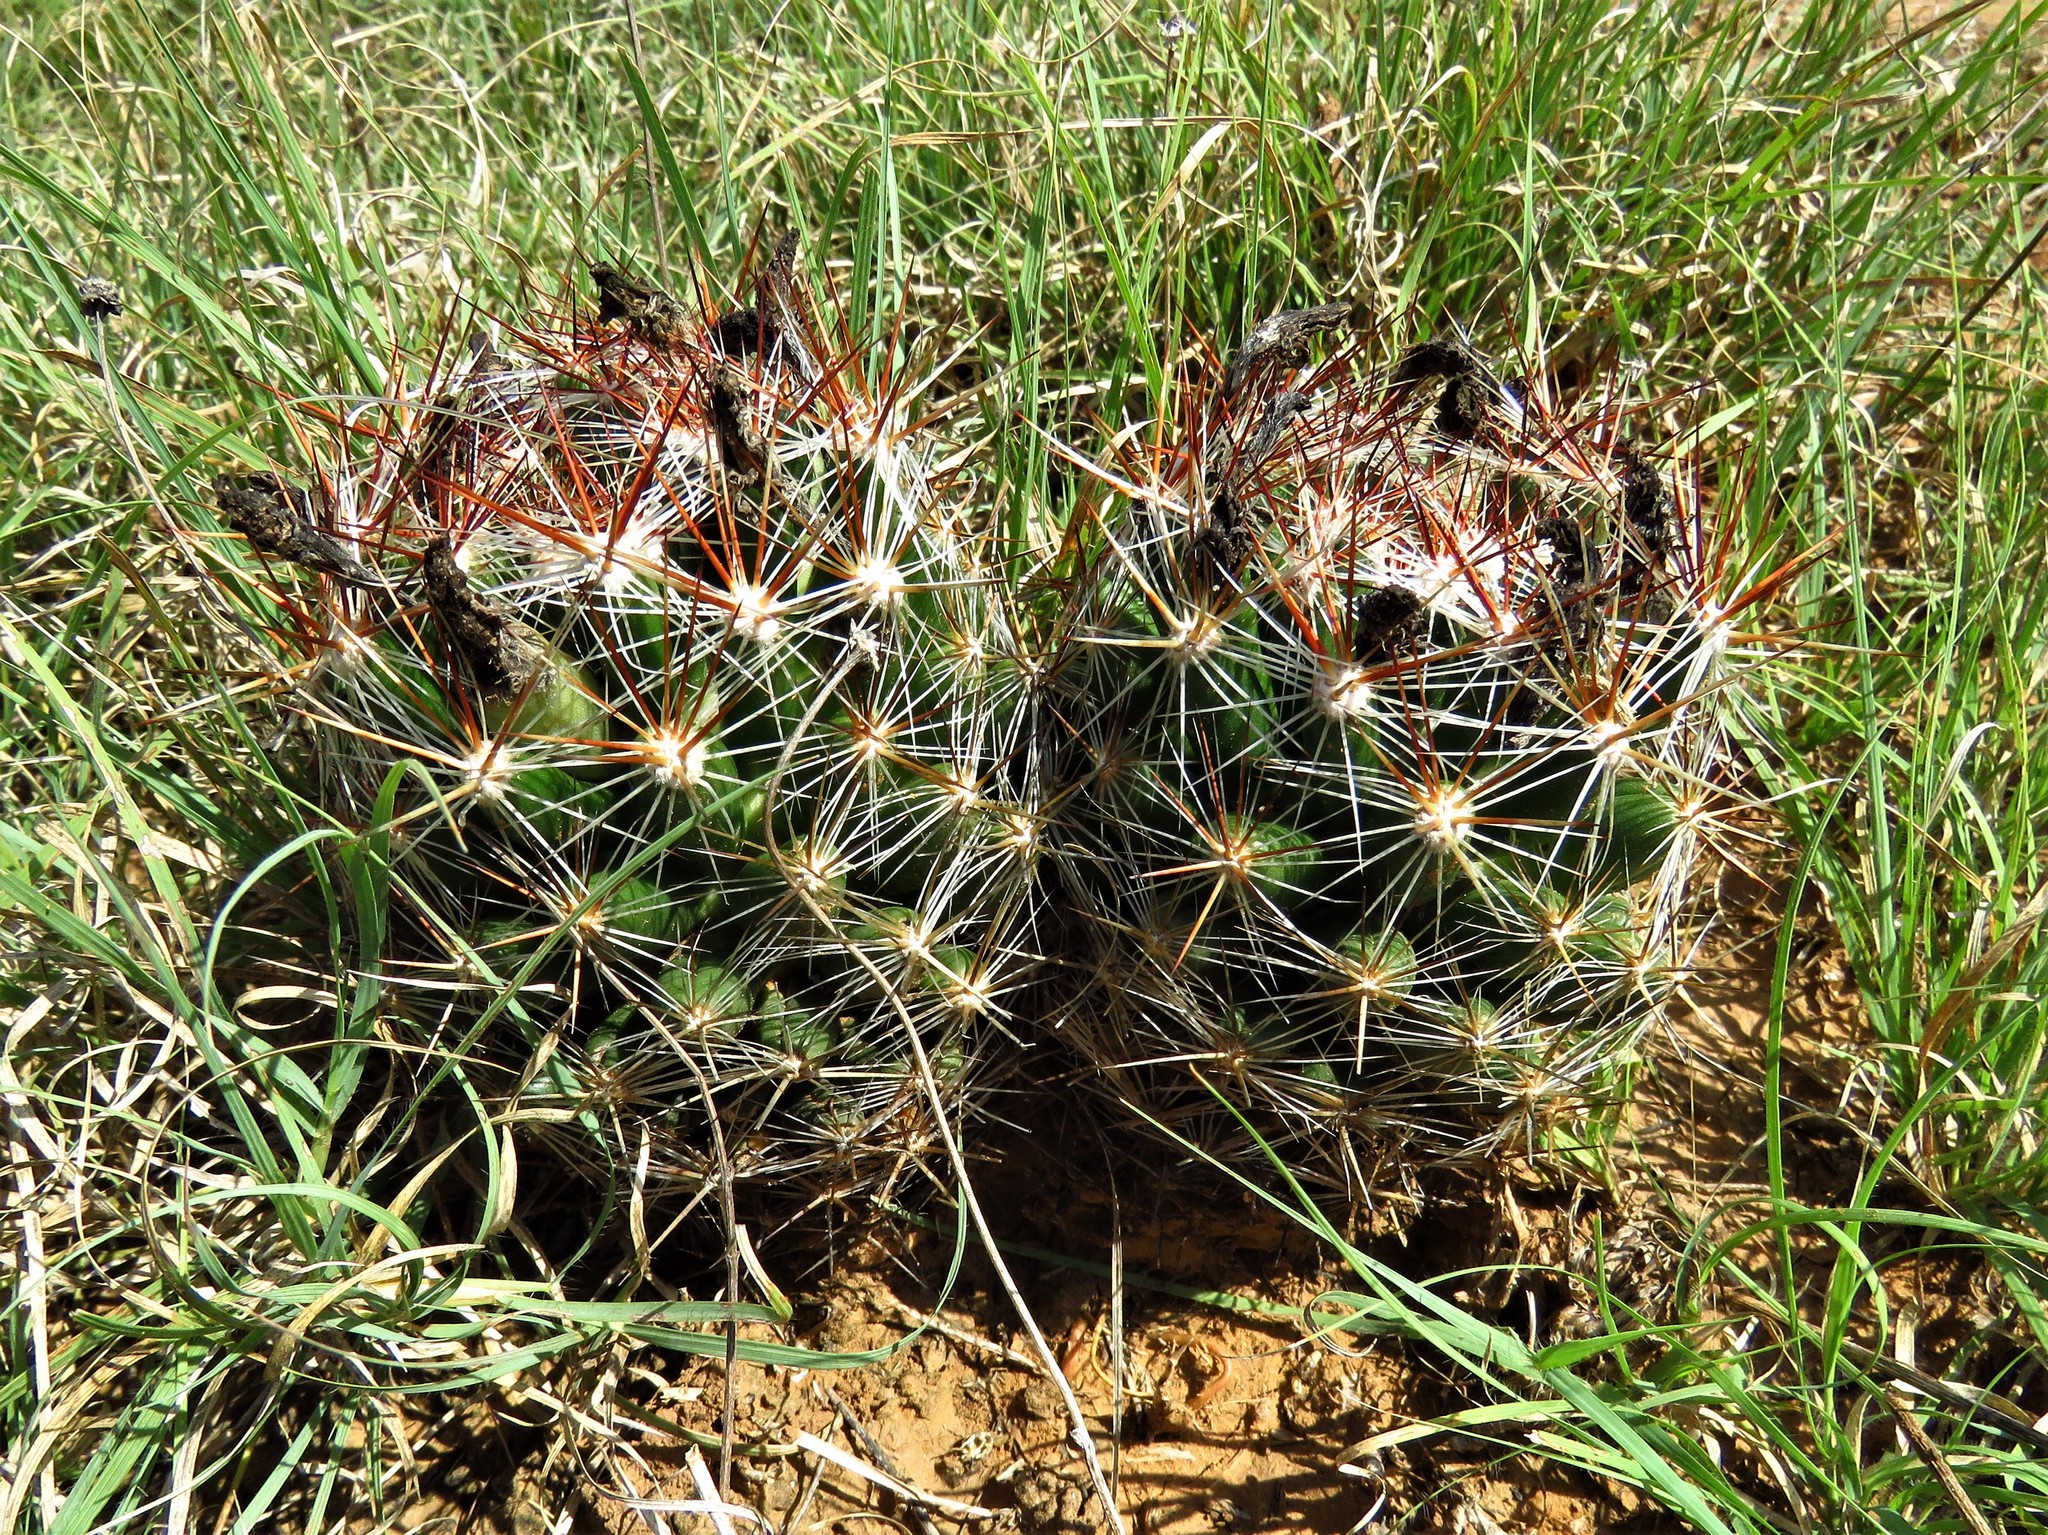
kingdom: Plantae
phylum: Tracheophyta
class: Magnoliopsida
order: Caryophyllales
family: Cactaceae
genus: Pelecyphora
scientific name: Pelecyphora vivipara
